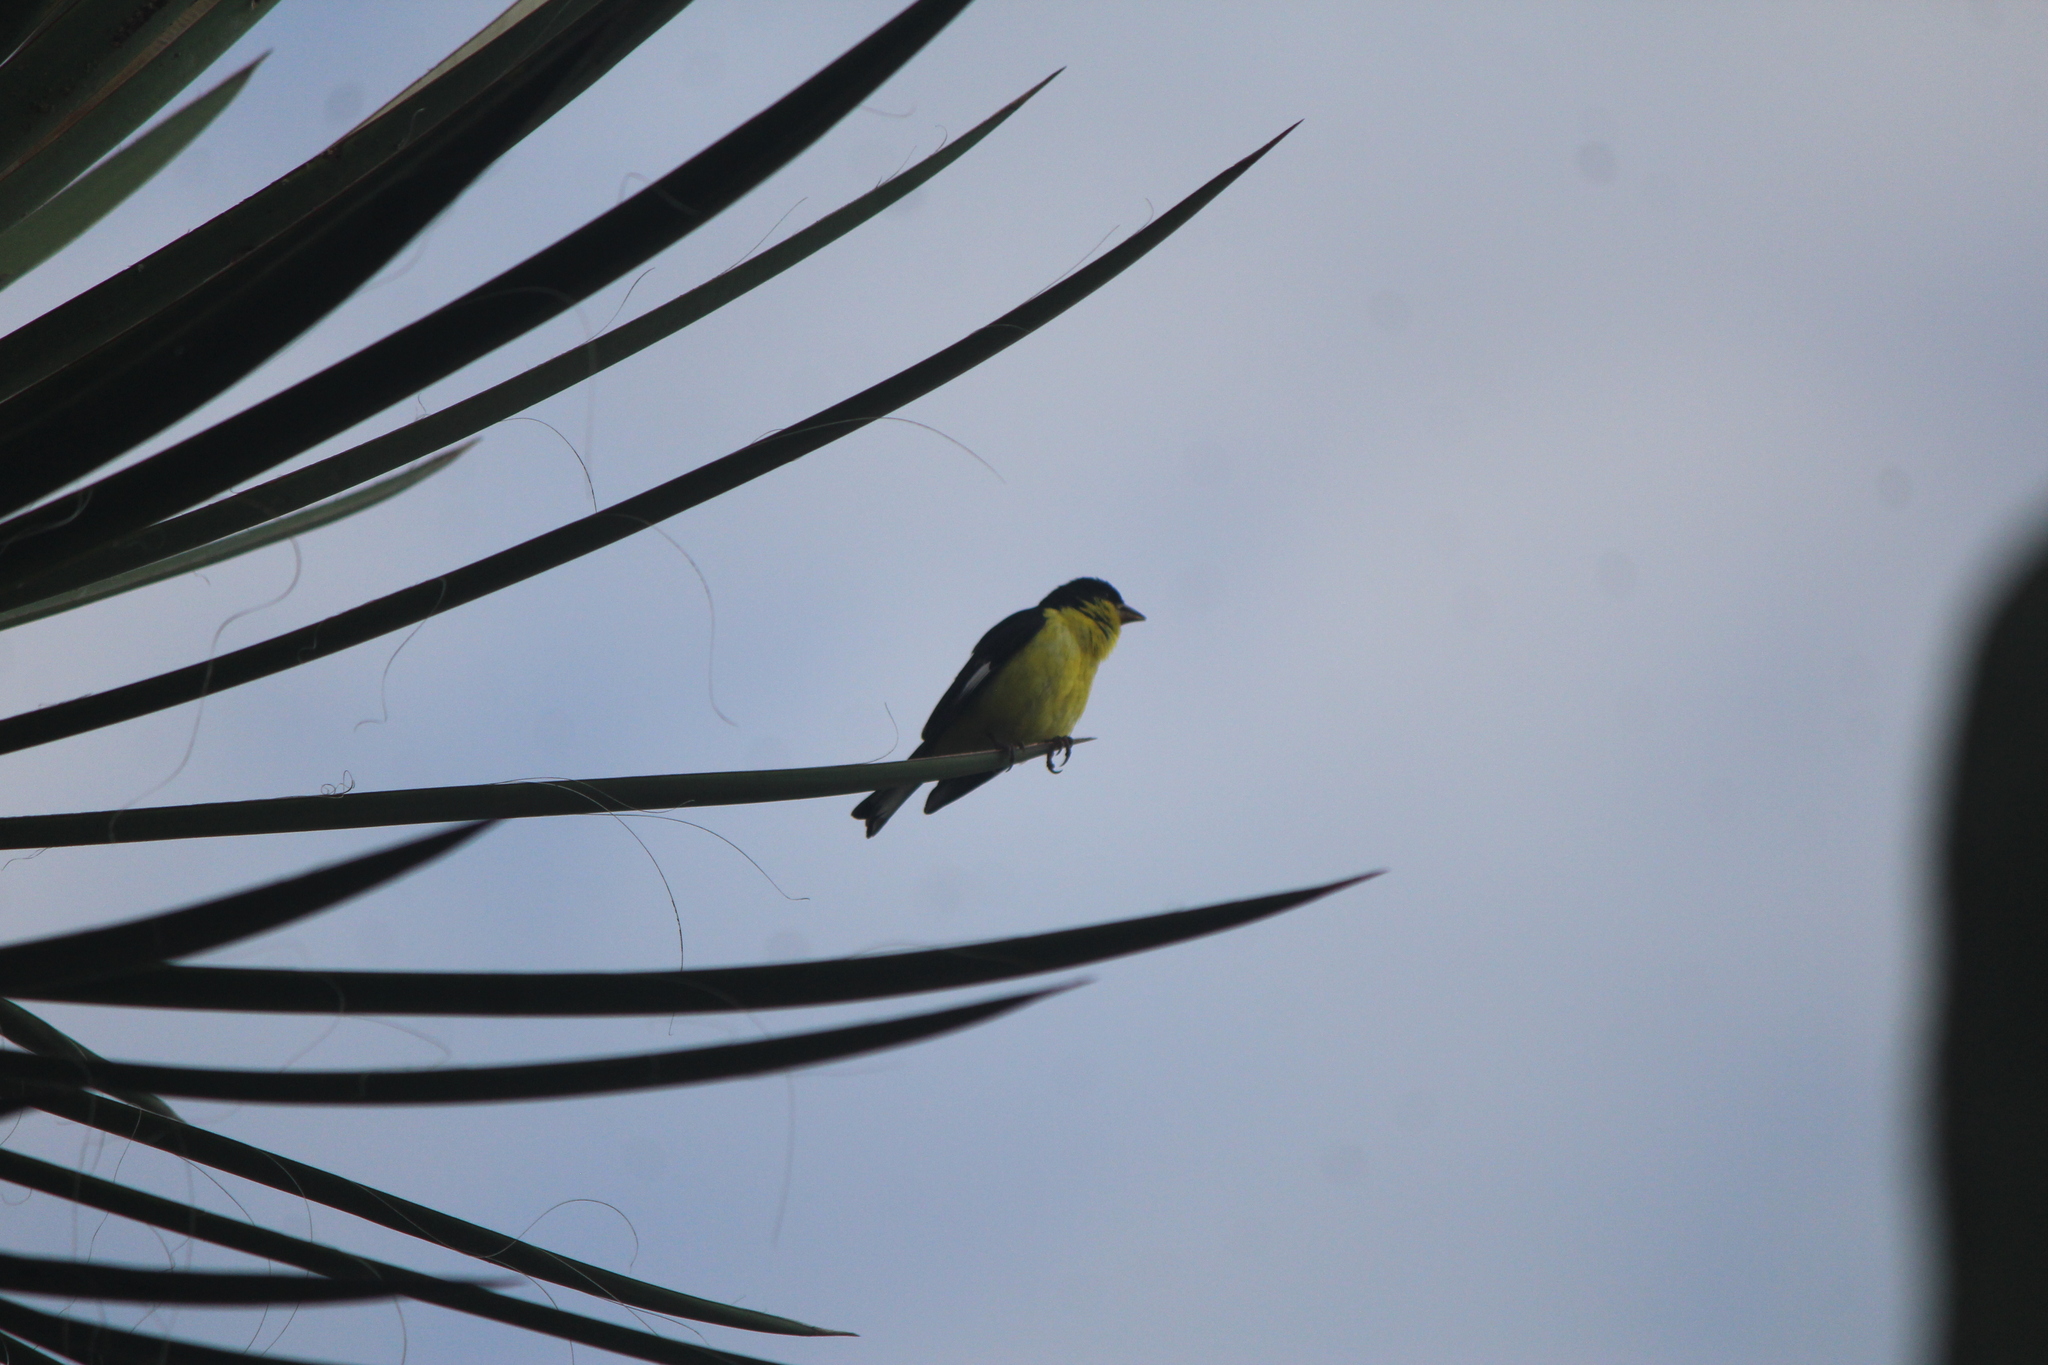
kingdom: Animalia
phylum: Chordata
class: Aves
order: Passeriformes
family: Fringillidae
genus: Spinus
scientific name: Spinus psaltria
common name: Lesser goldfinch
